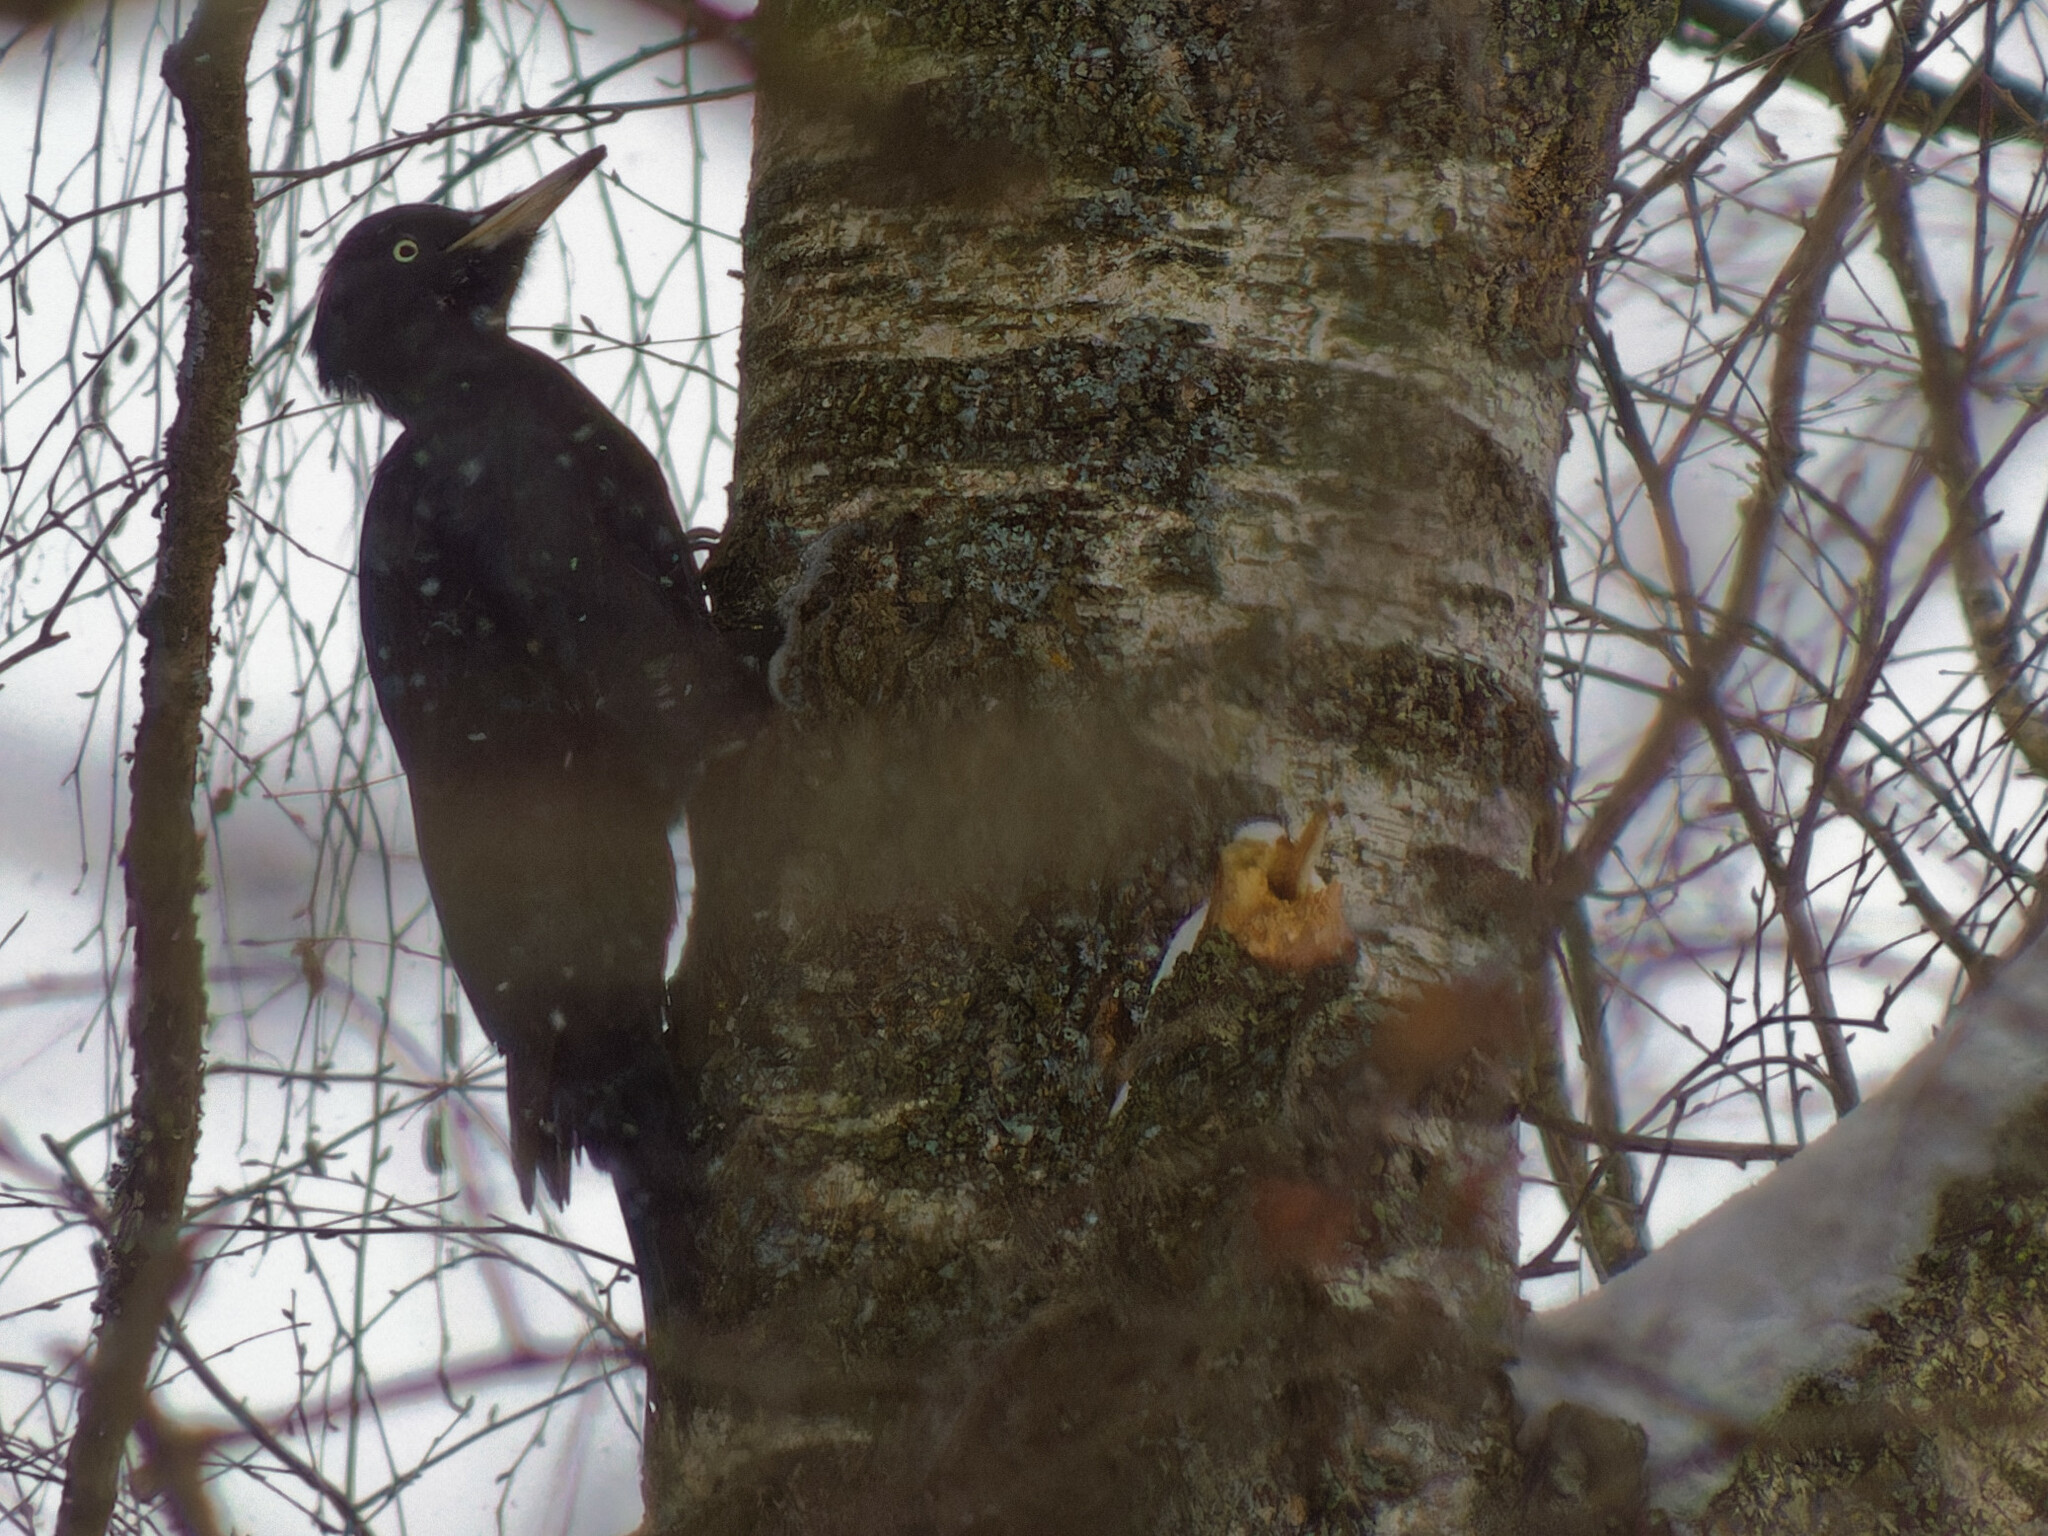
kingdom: Animalia
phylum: Chordata
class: Aves
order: Piciformes
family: Picidae
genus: Dryocopus
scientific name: Dryocopus martius
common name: Black woodpecker
